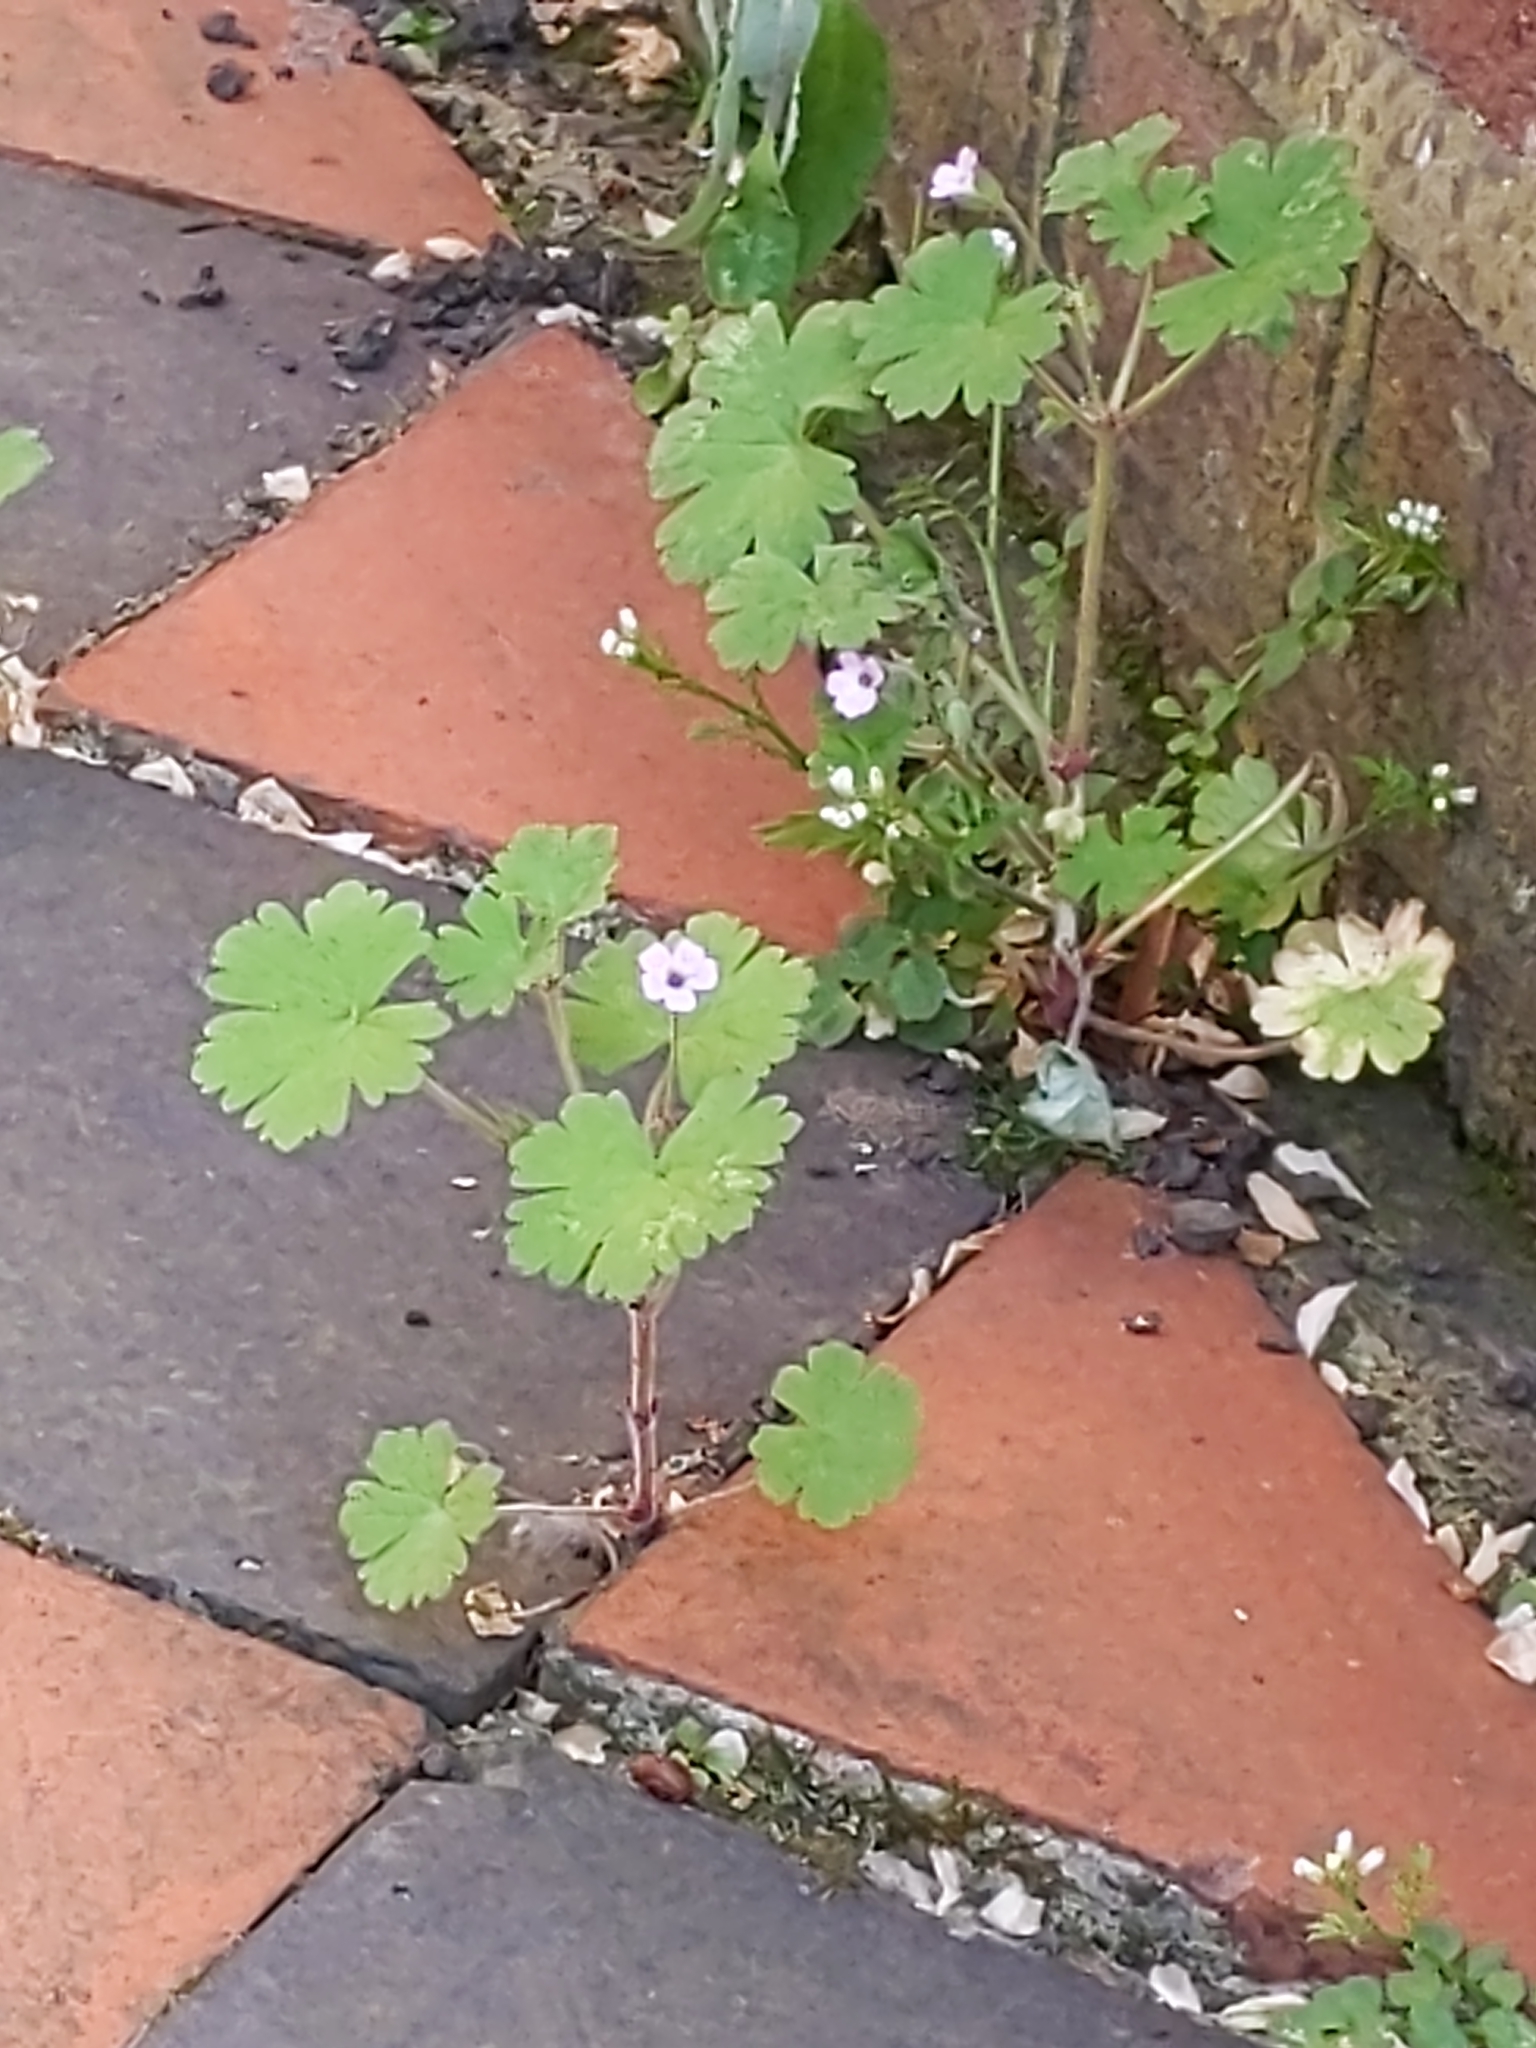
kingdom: Plantae
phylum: Tracheophyta
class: Magnoliopsida
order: Geraniales
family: Geraniaceae
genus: Geranium
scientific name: Geranium rotundifolium
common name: Round-leaved crane's-bill
